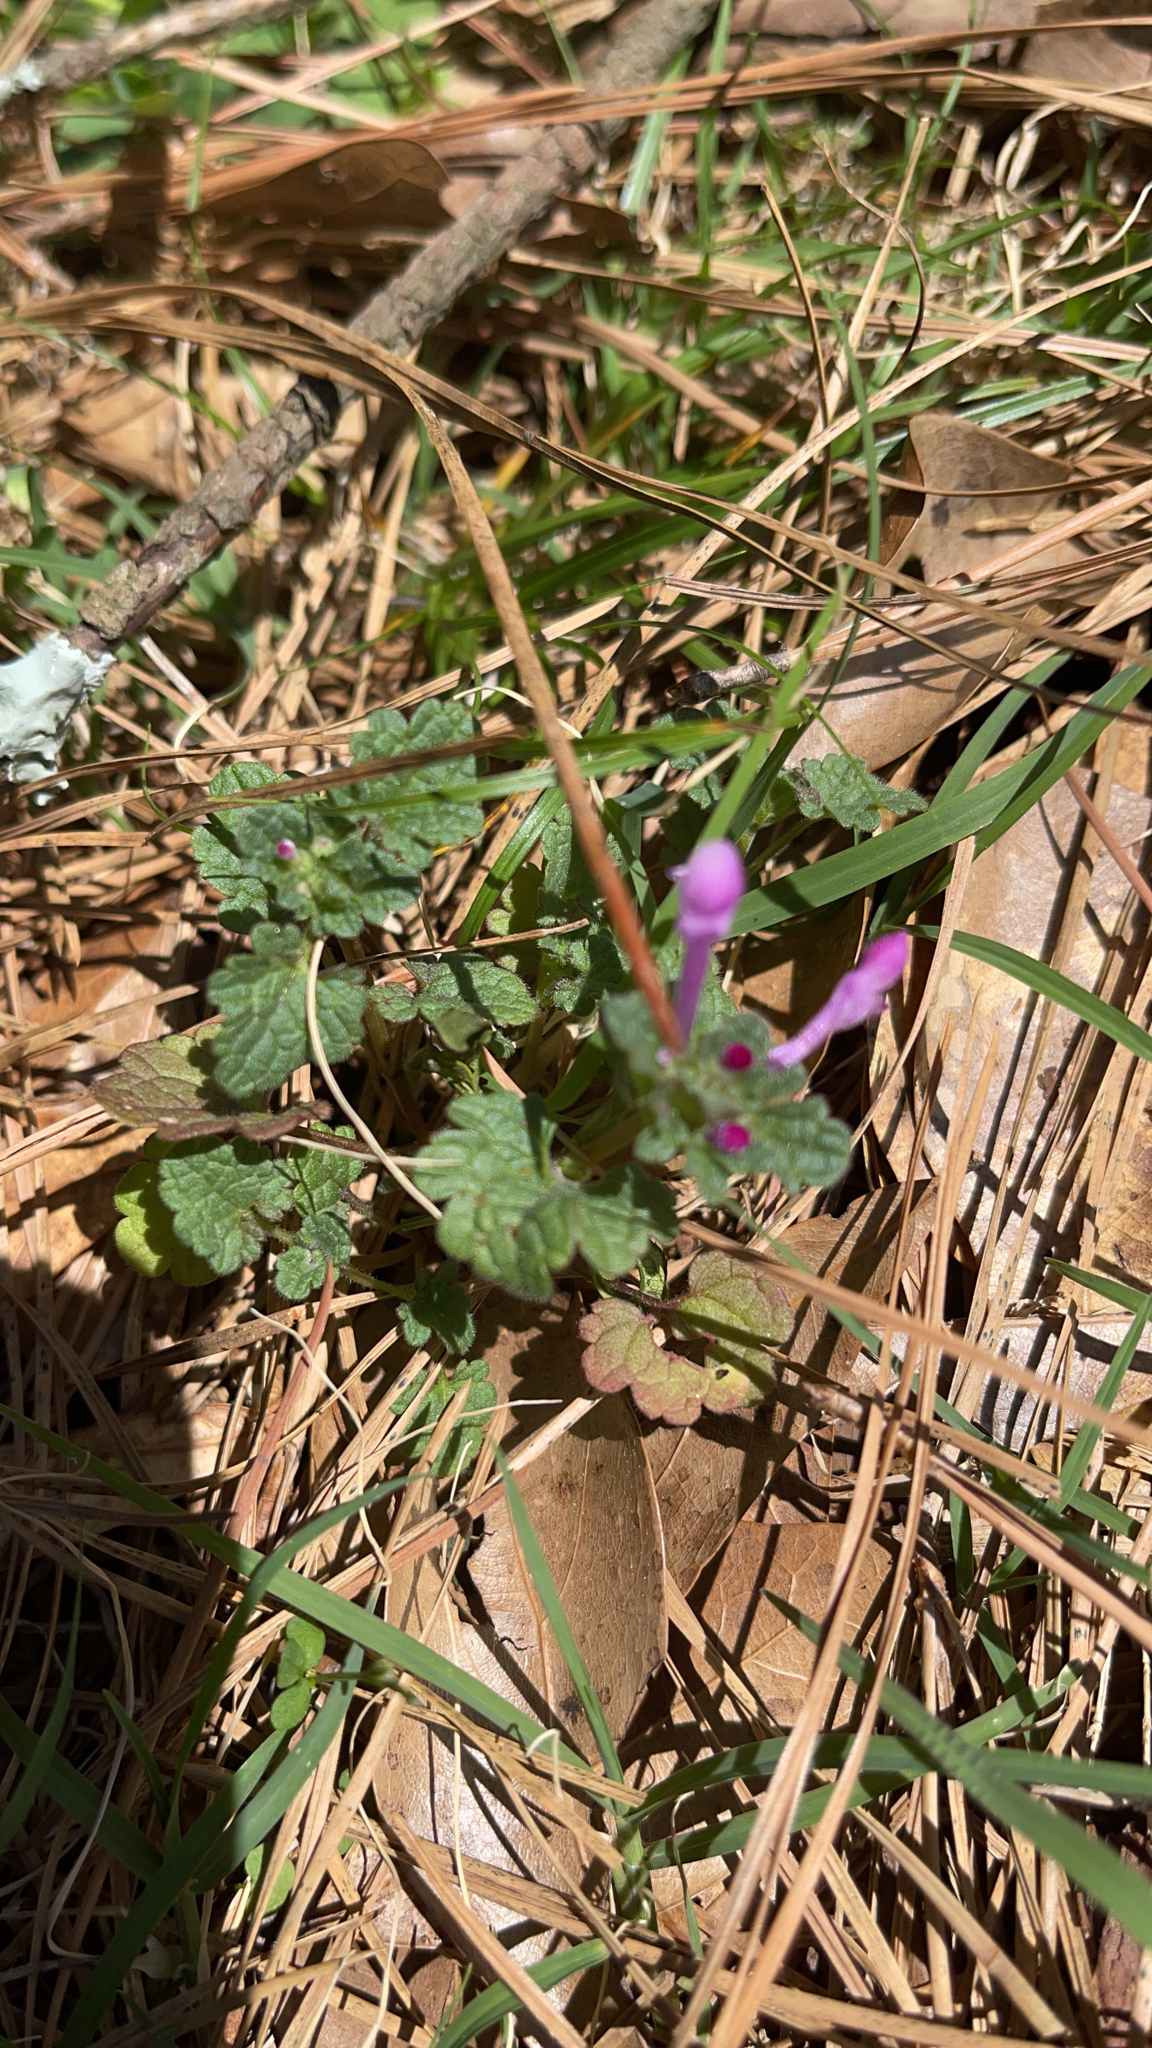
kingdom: Plantae
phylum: Tracheophyta
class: Magnoliopsida
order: Lamiales
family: Lamiaceae
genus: Lamium
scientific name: Lamium amplexicaule
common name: Henbit dead-nettle
